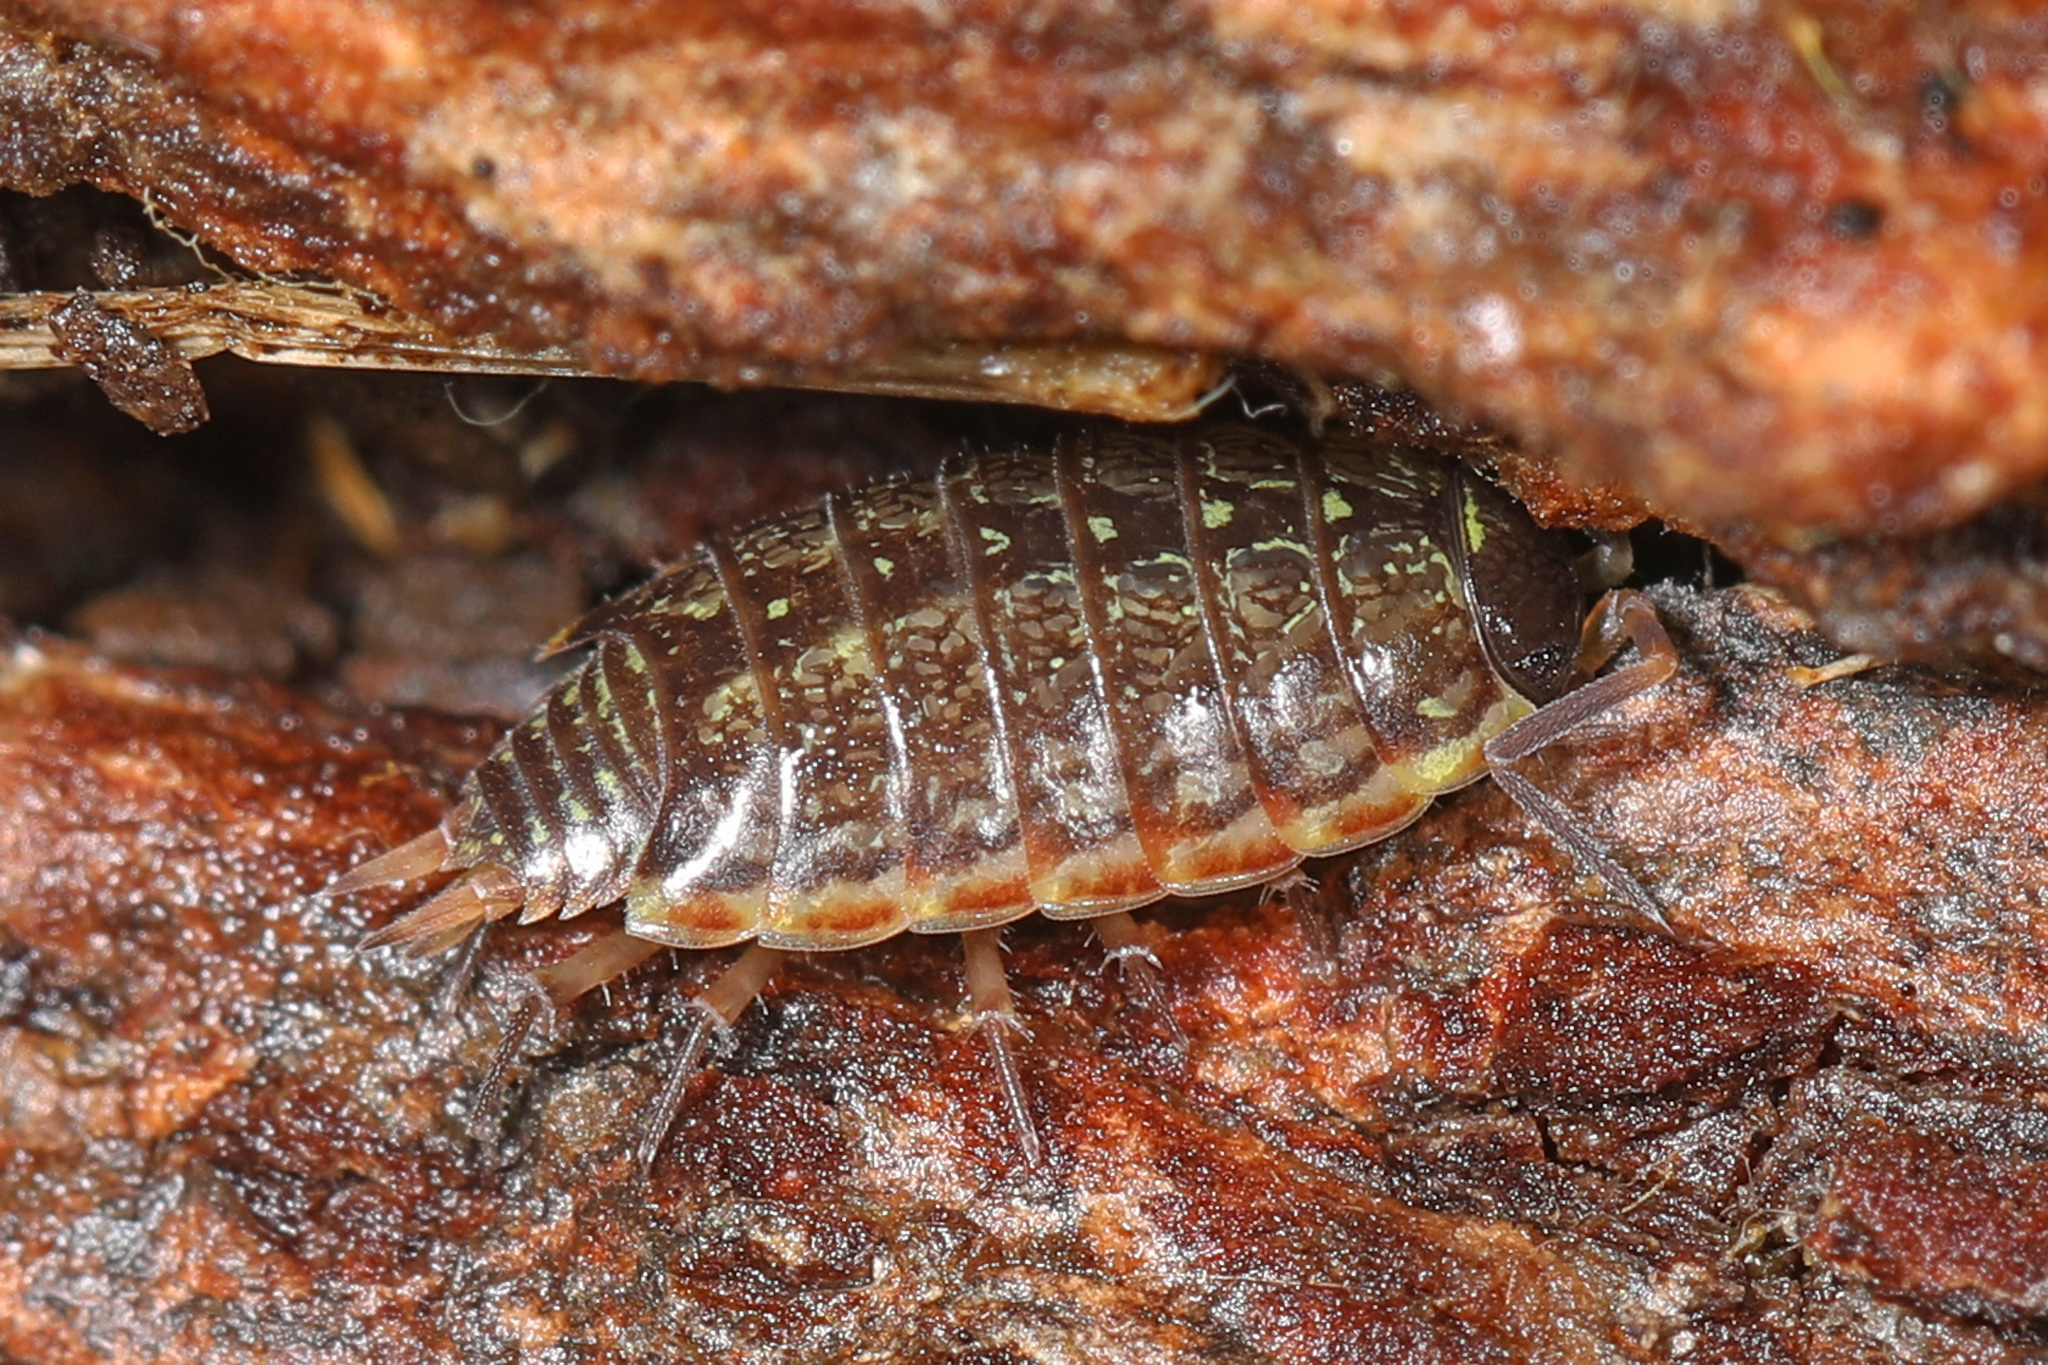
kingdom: Animalia
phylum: Arthropoda
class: Malacostraca
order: Isopoda
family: Philosciidae
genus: Philoscia
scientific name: Philoscia muscorum
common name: Common striped woodlouse
